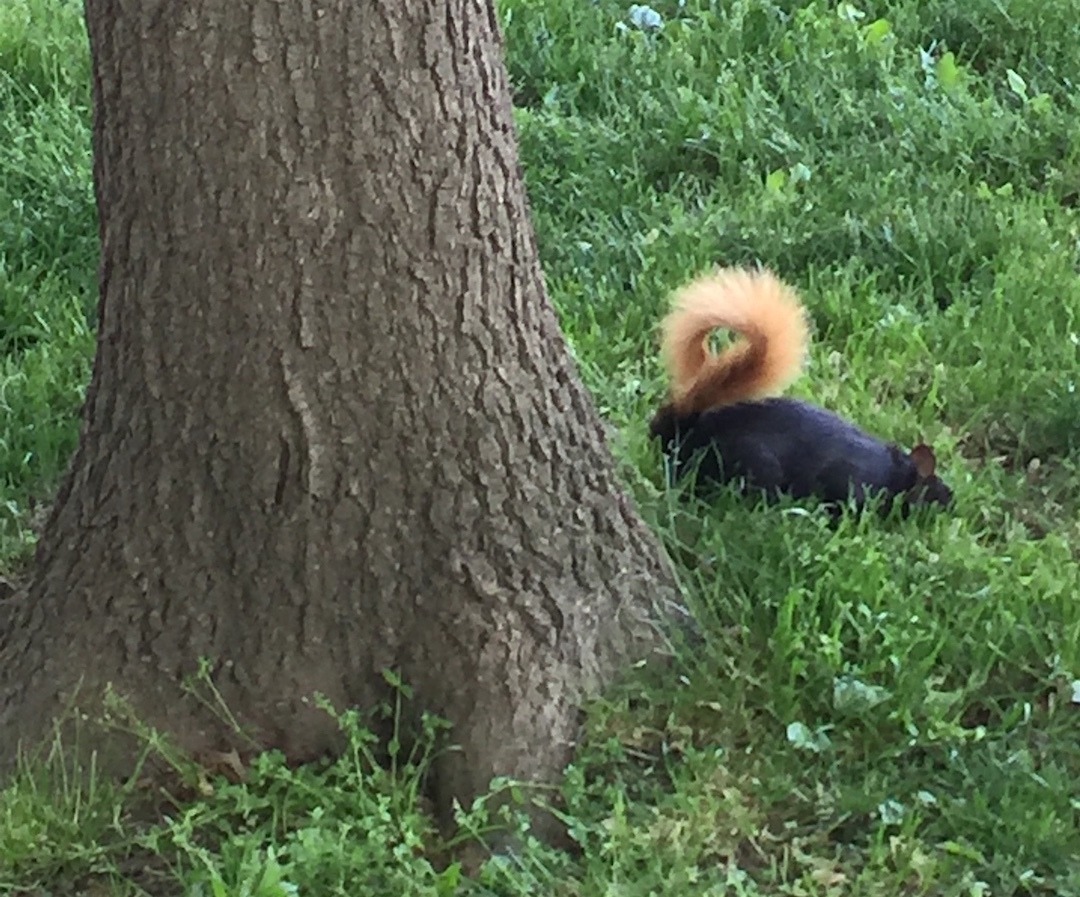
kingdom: Animalia
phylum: Chordata
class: Mammalia
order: Rodentia
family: Sciuridae
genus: Sciurus
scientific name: Sciurus carolinensis
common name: Eastern gray squirrel
